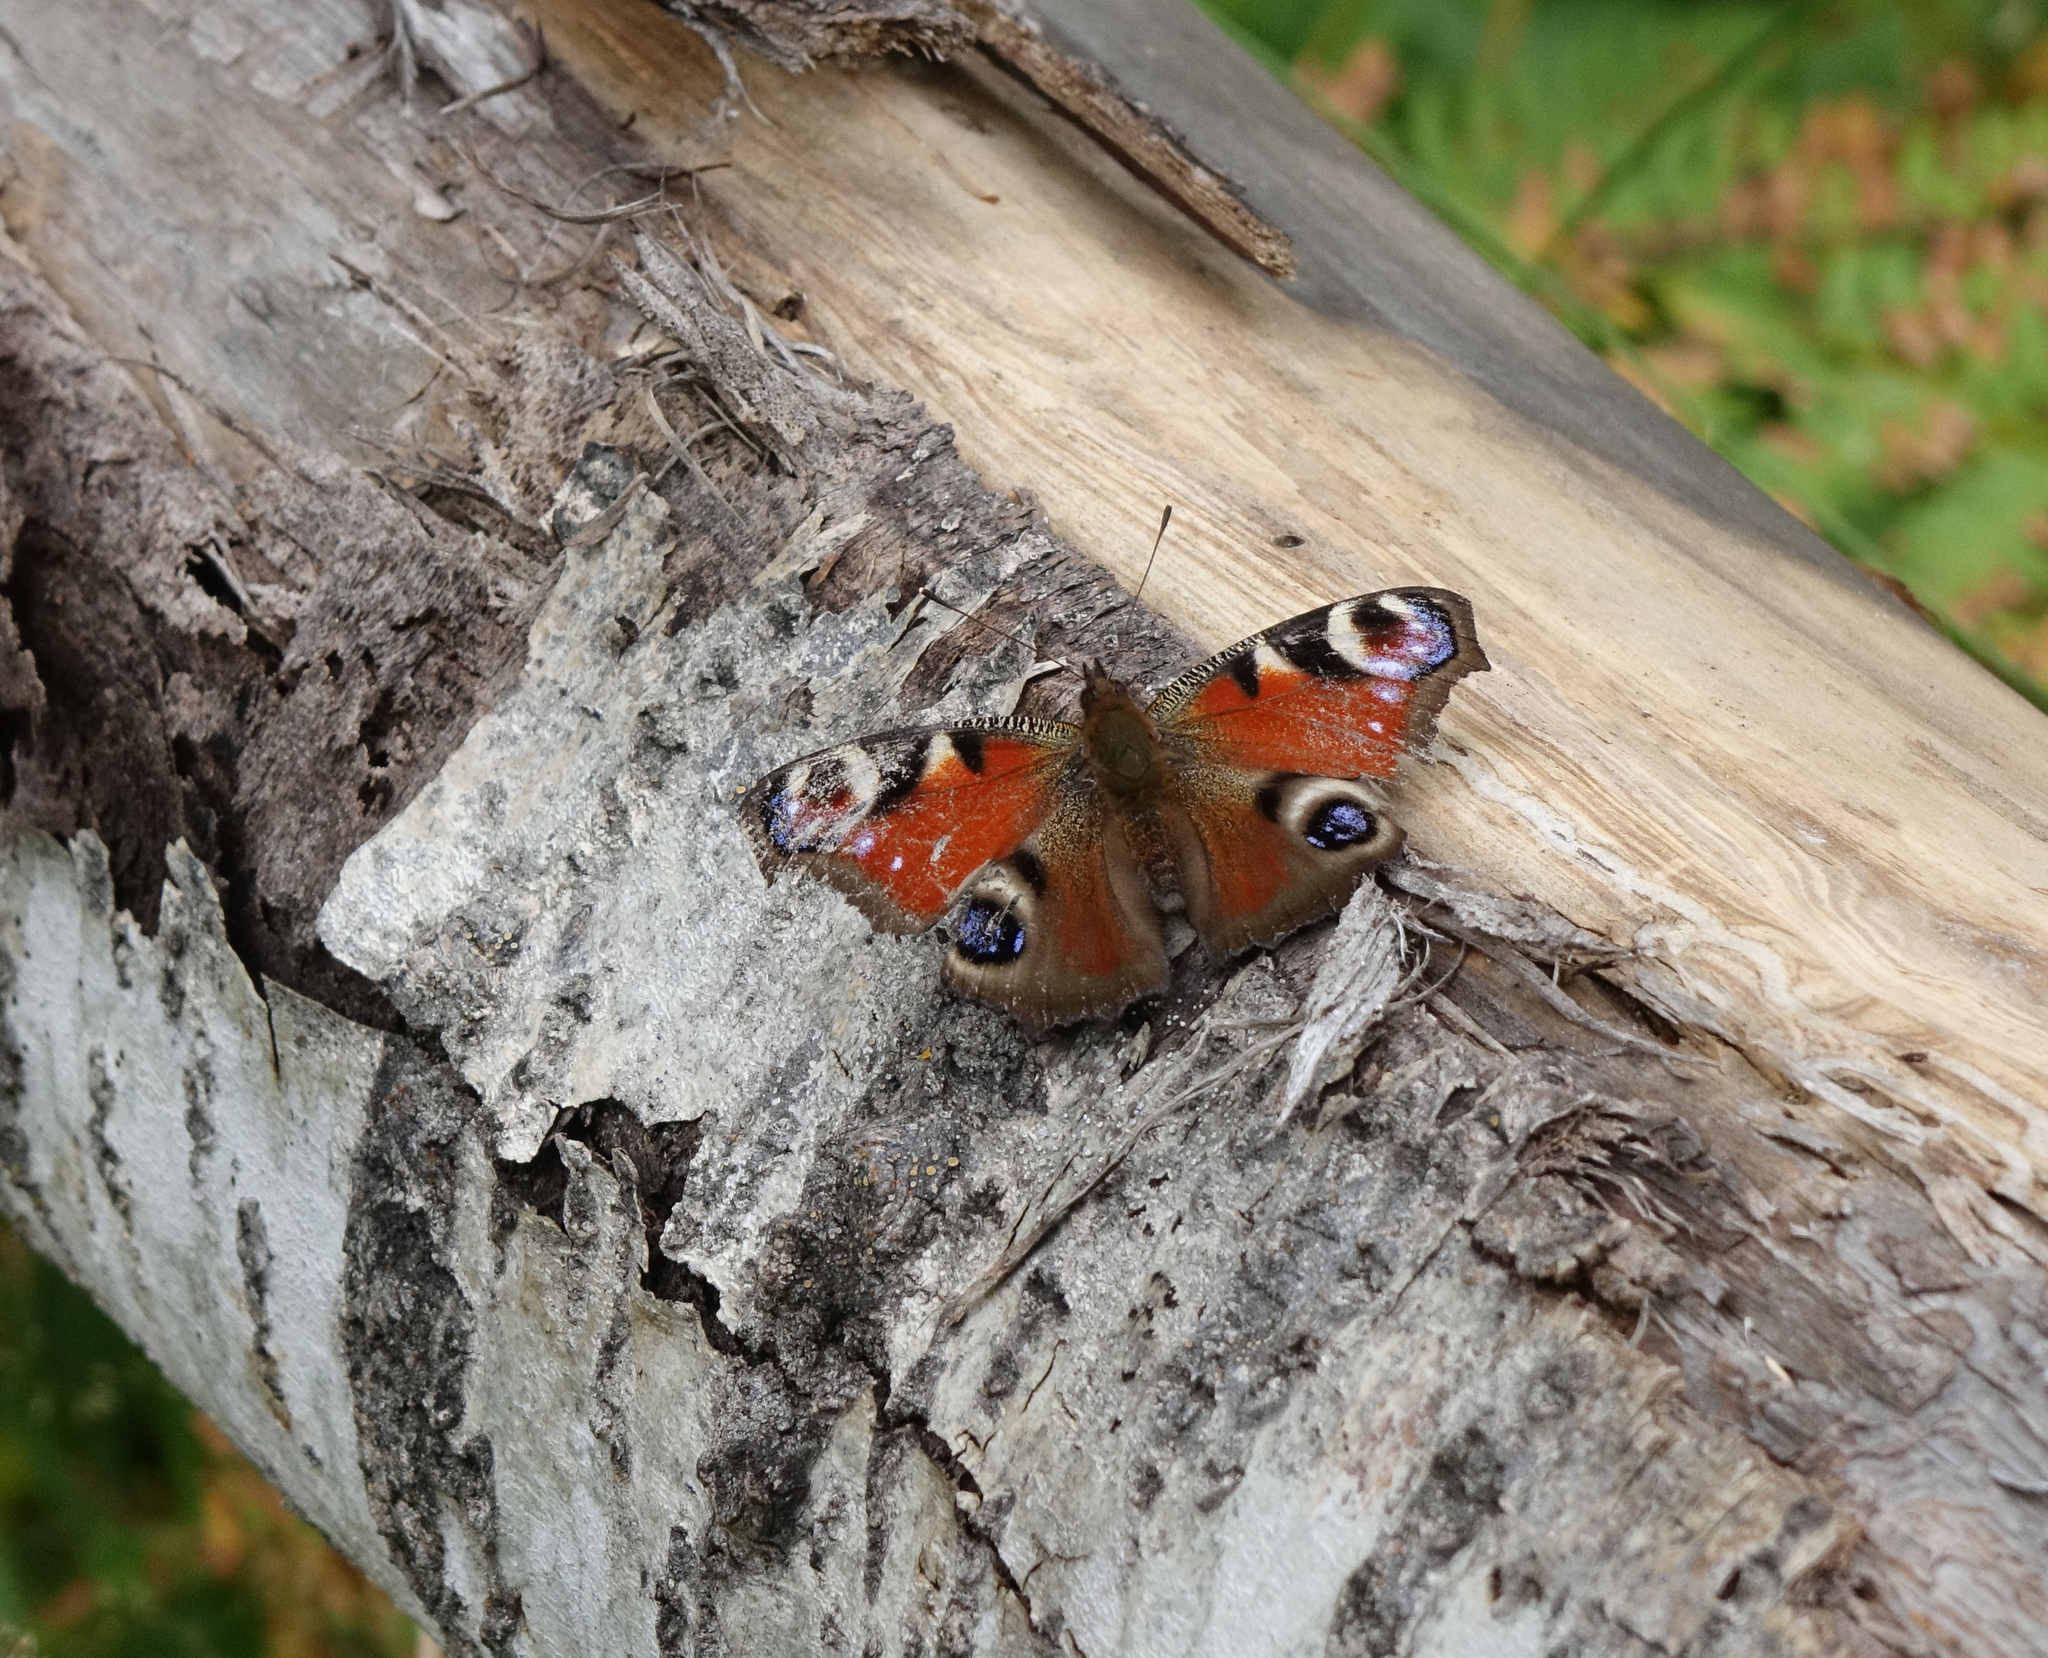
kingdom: Animalia
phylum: Arthropoda
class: Insecta
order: Lepidoptera
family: Nymphalidae
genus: Aglais
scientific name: Aglais io
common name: Peacock
